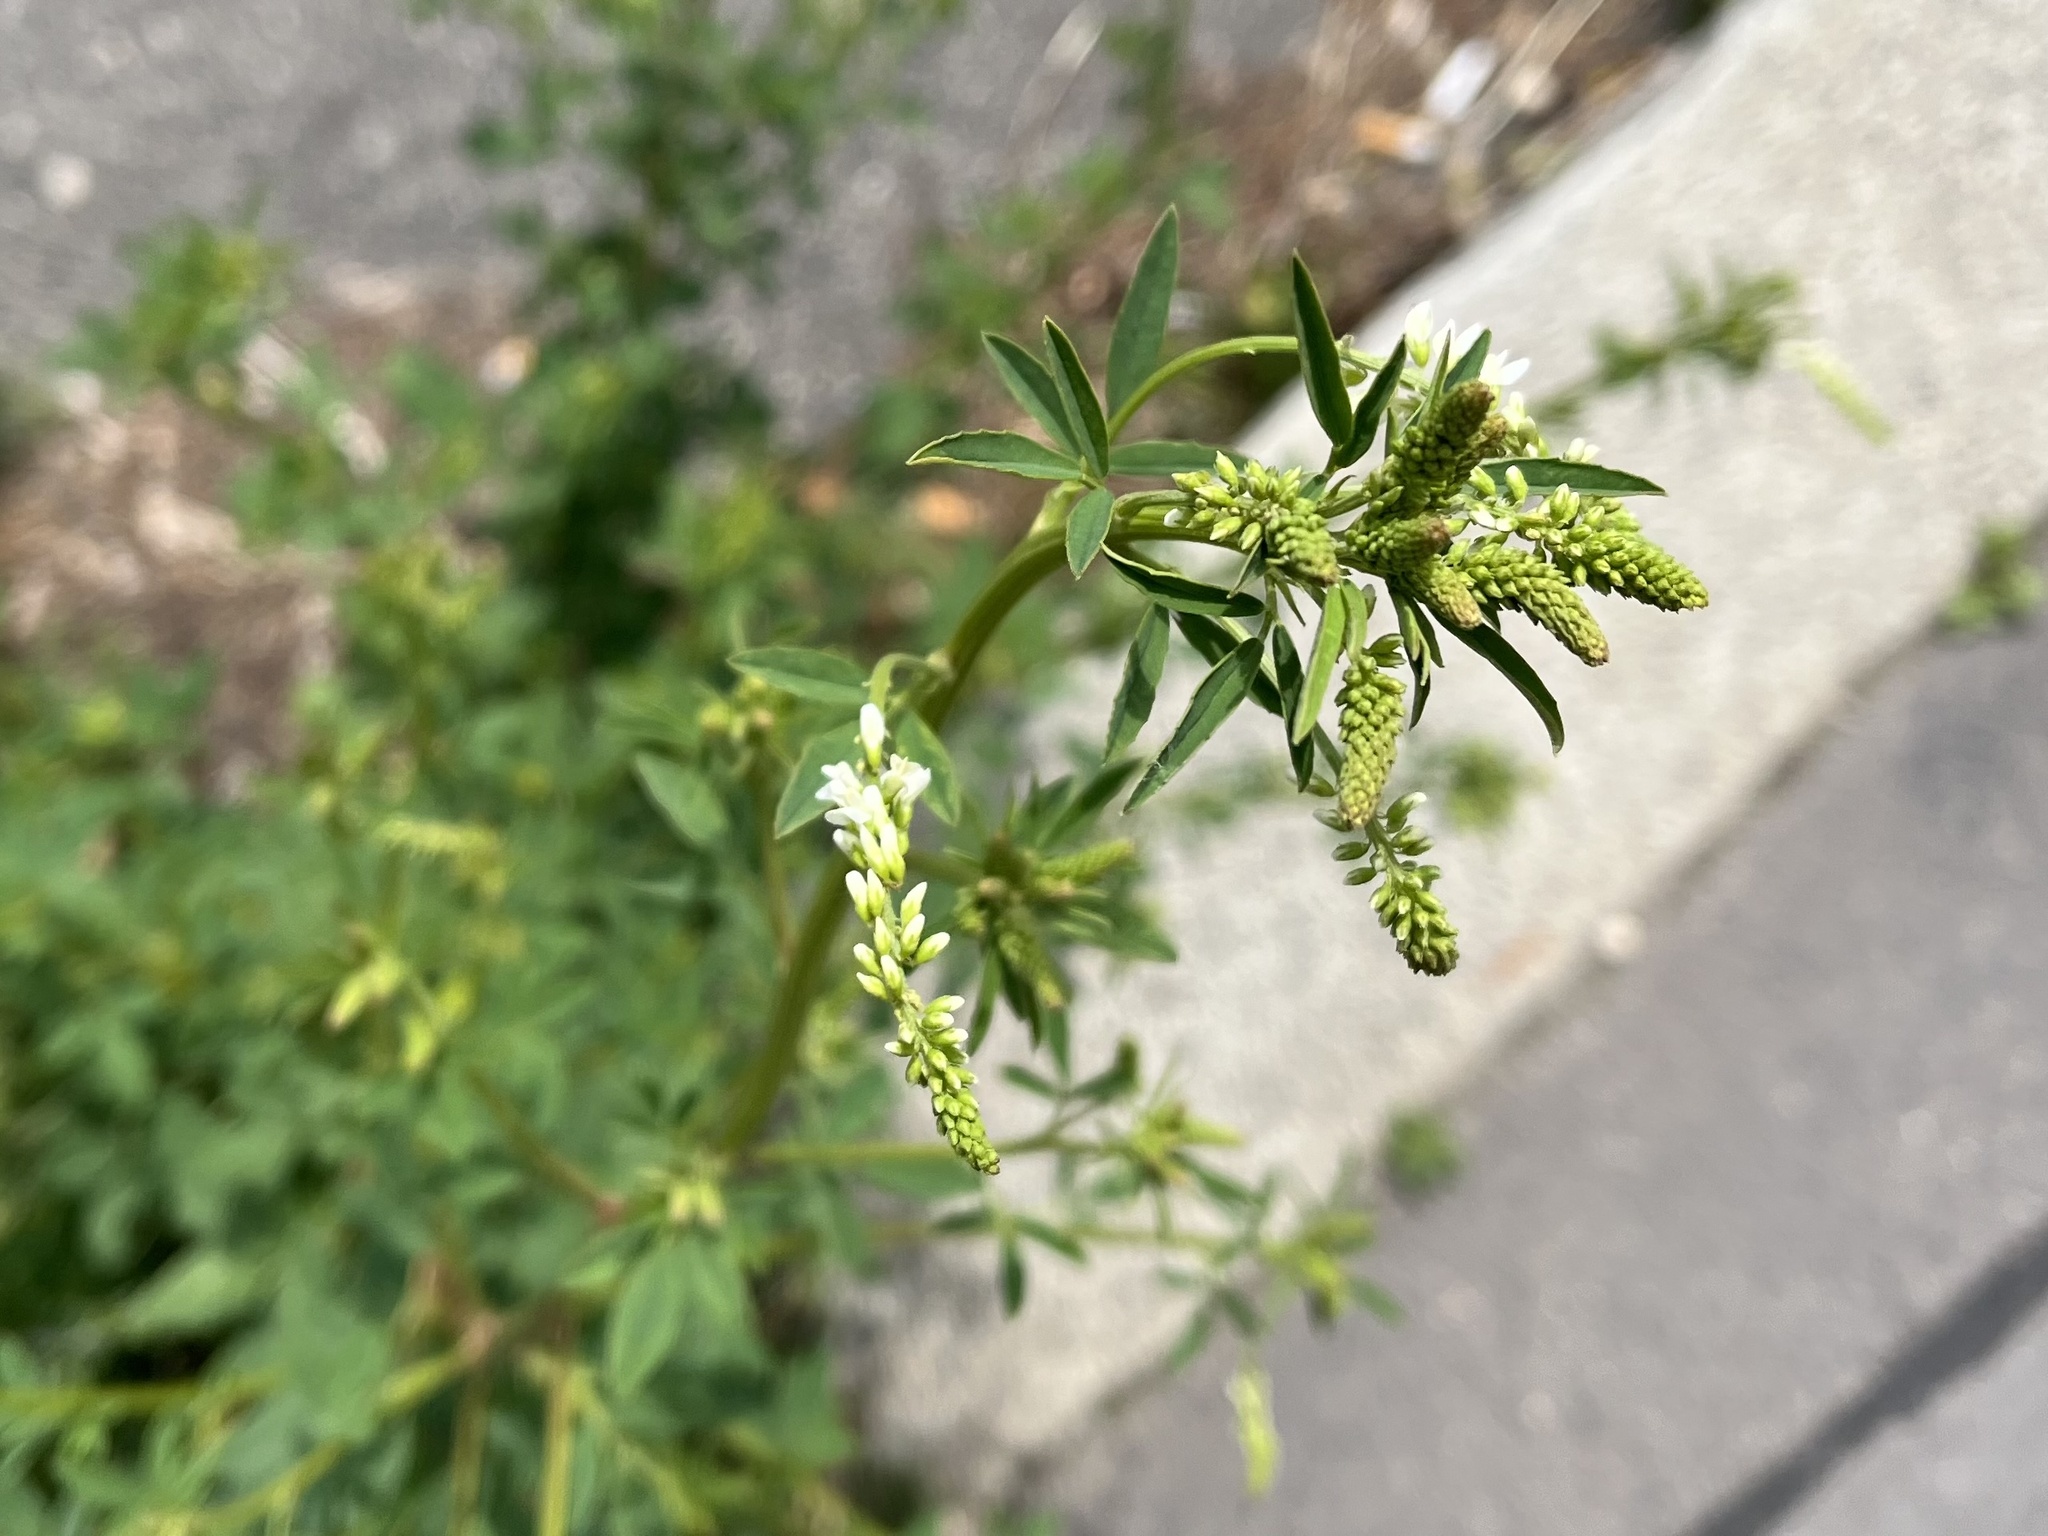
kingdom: Plantae
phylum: Tracheophyta
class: Magnoliopsida
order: Fabales
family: Fabaceae
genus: Melilotus
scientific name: Melilotus albus
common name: White melilot
